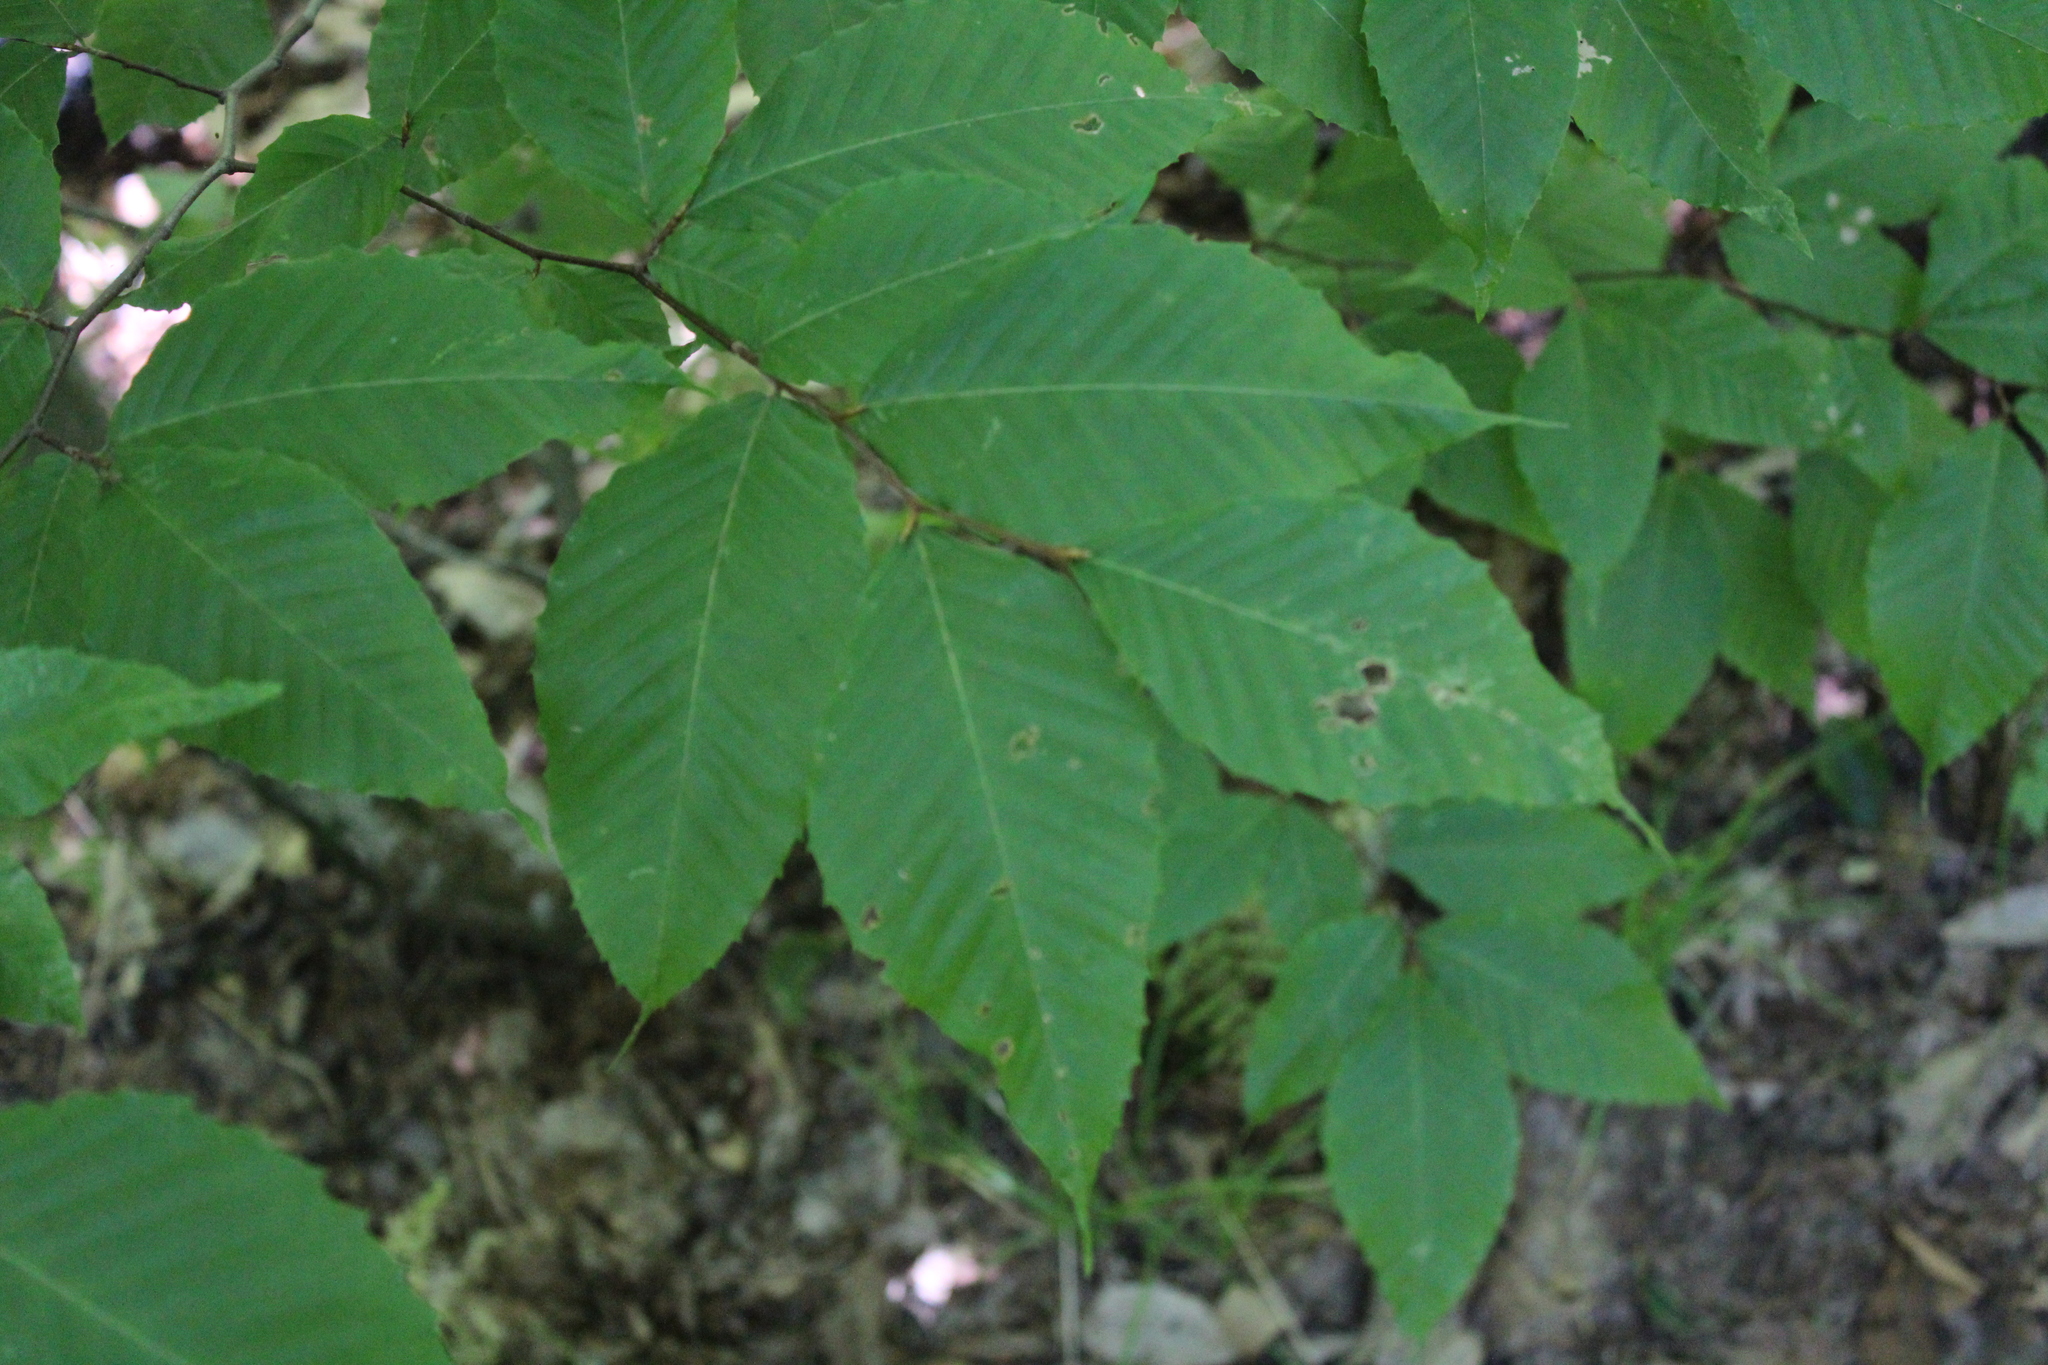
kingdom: Plantae
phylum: Tracheophyta
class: Magnoliopsida
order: Fagales
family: Fagaceae
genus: Fagus
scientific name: Fagus grandifolia
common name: American beech
